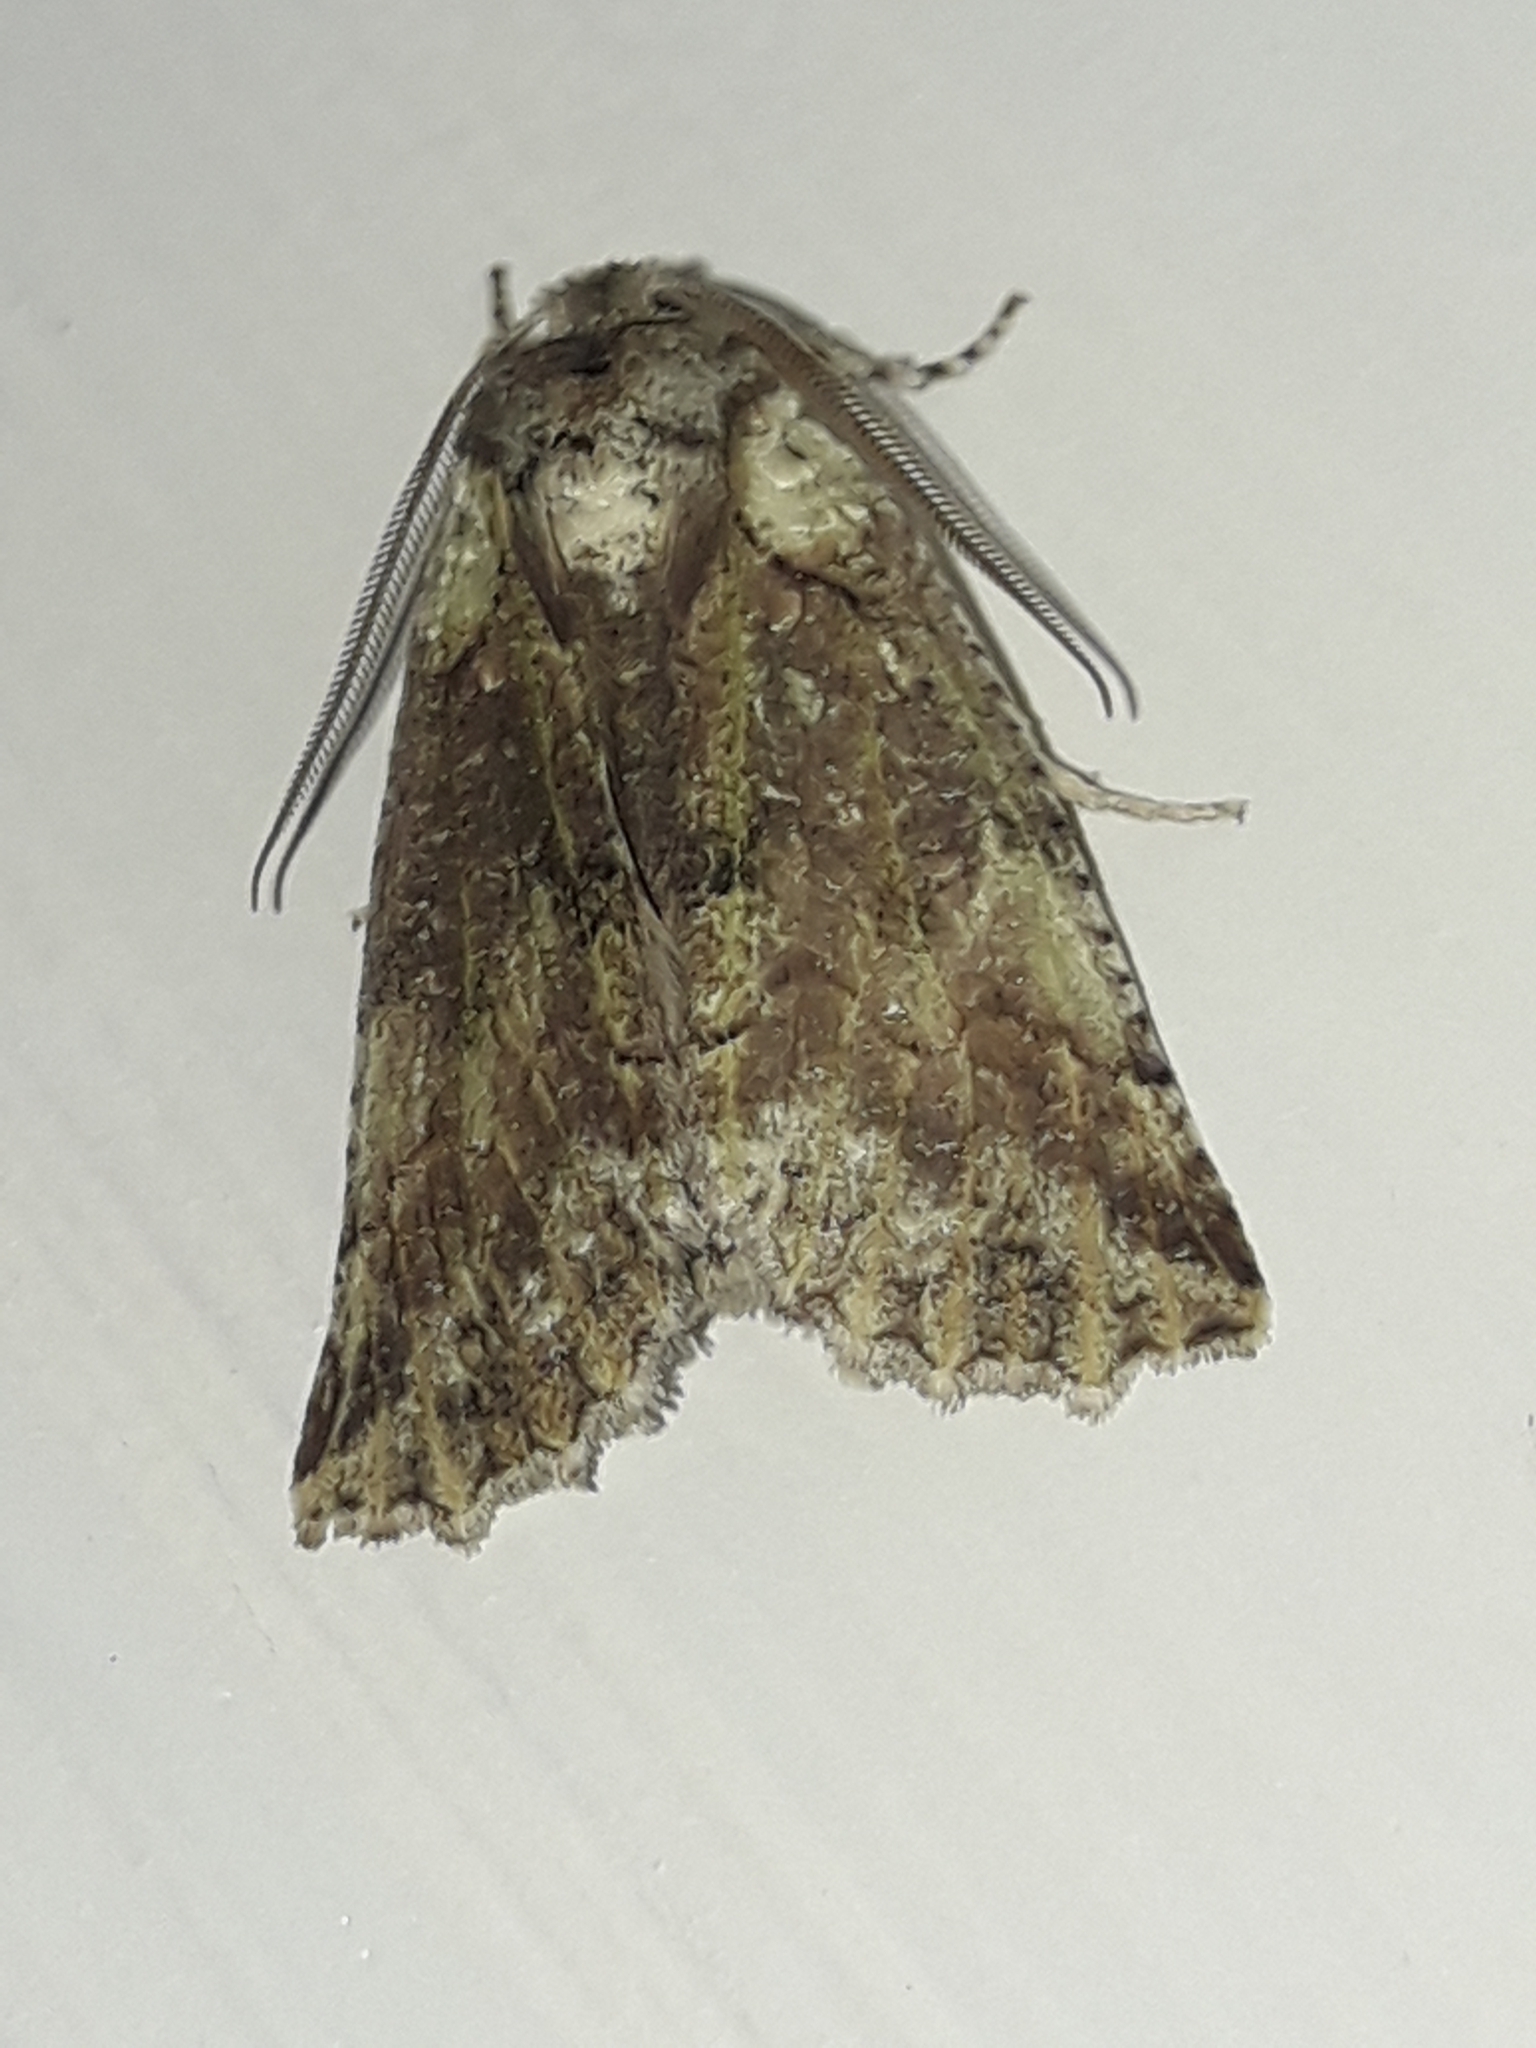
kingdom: Animalia
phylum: Arthropoda
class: Insecta
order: Lepidoptera
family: Geometridae
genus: Declana
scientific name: Declana floccosa
